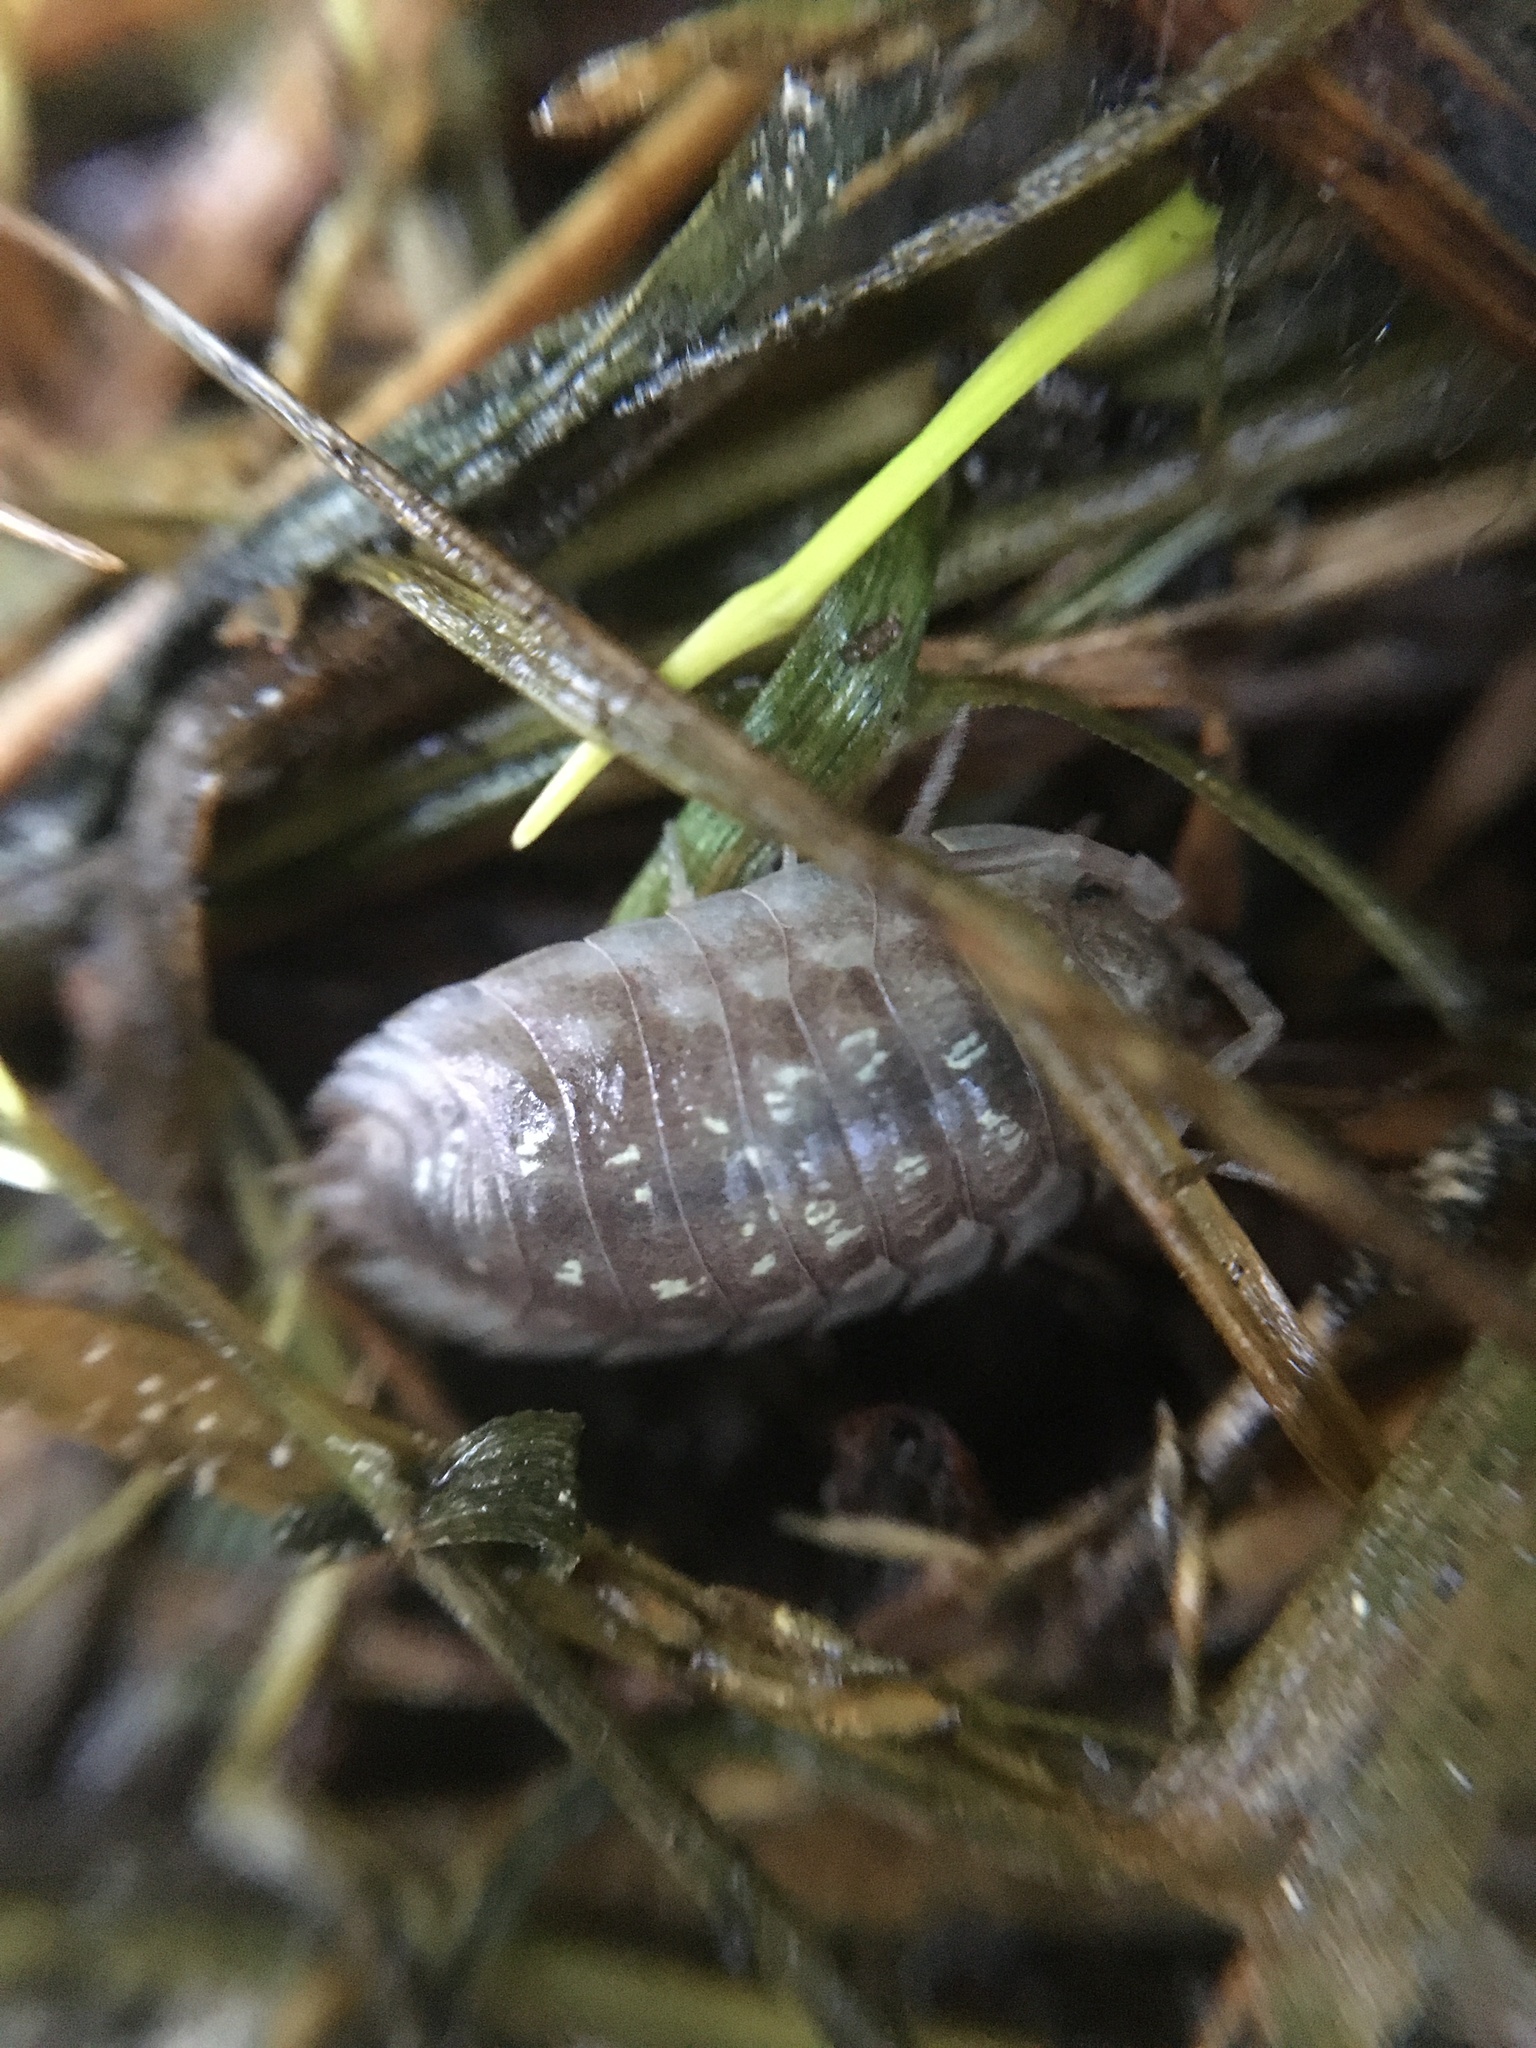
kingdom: Animalia
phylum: Arthropoda
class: Malacostraca
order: Isopoda
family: Oniscidae
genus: Oniscus
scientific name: Oniscus asellus
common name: Common shiny woodlouse
